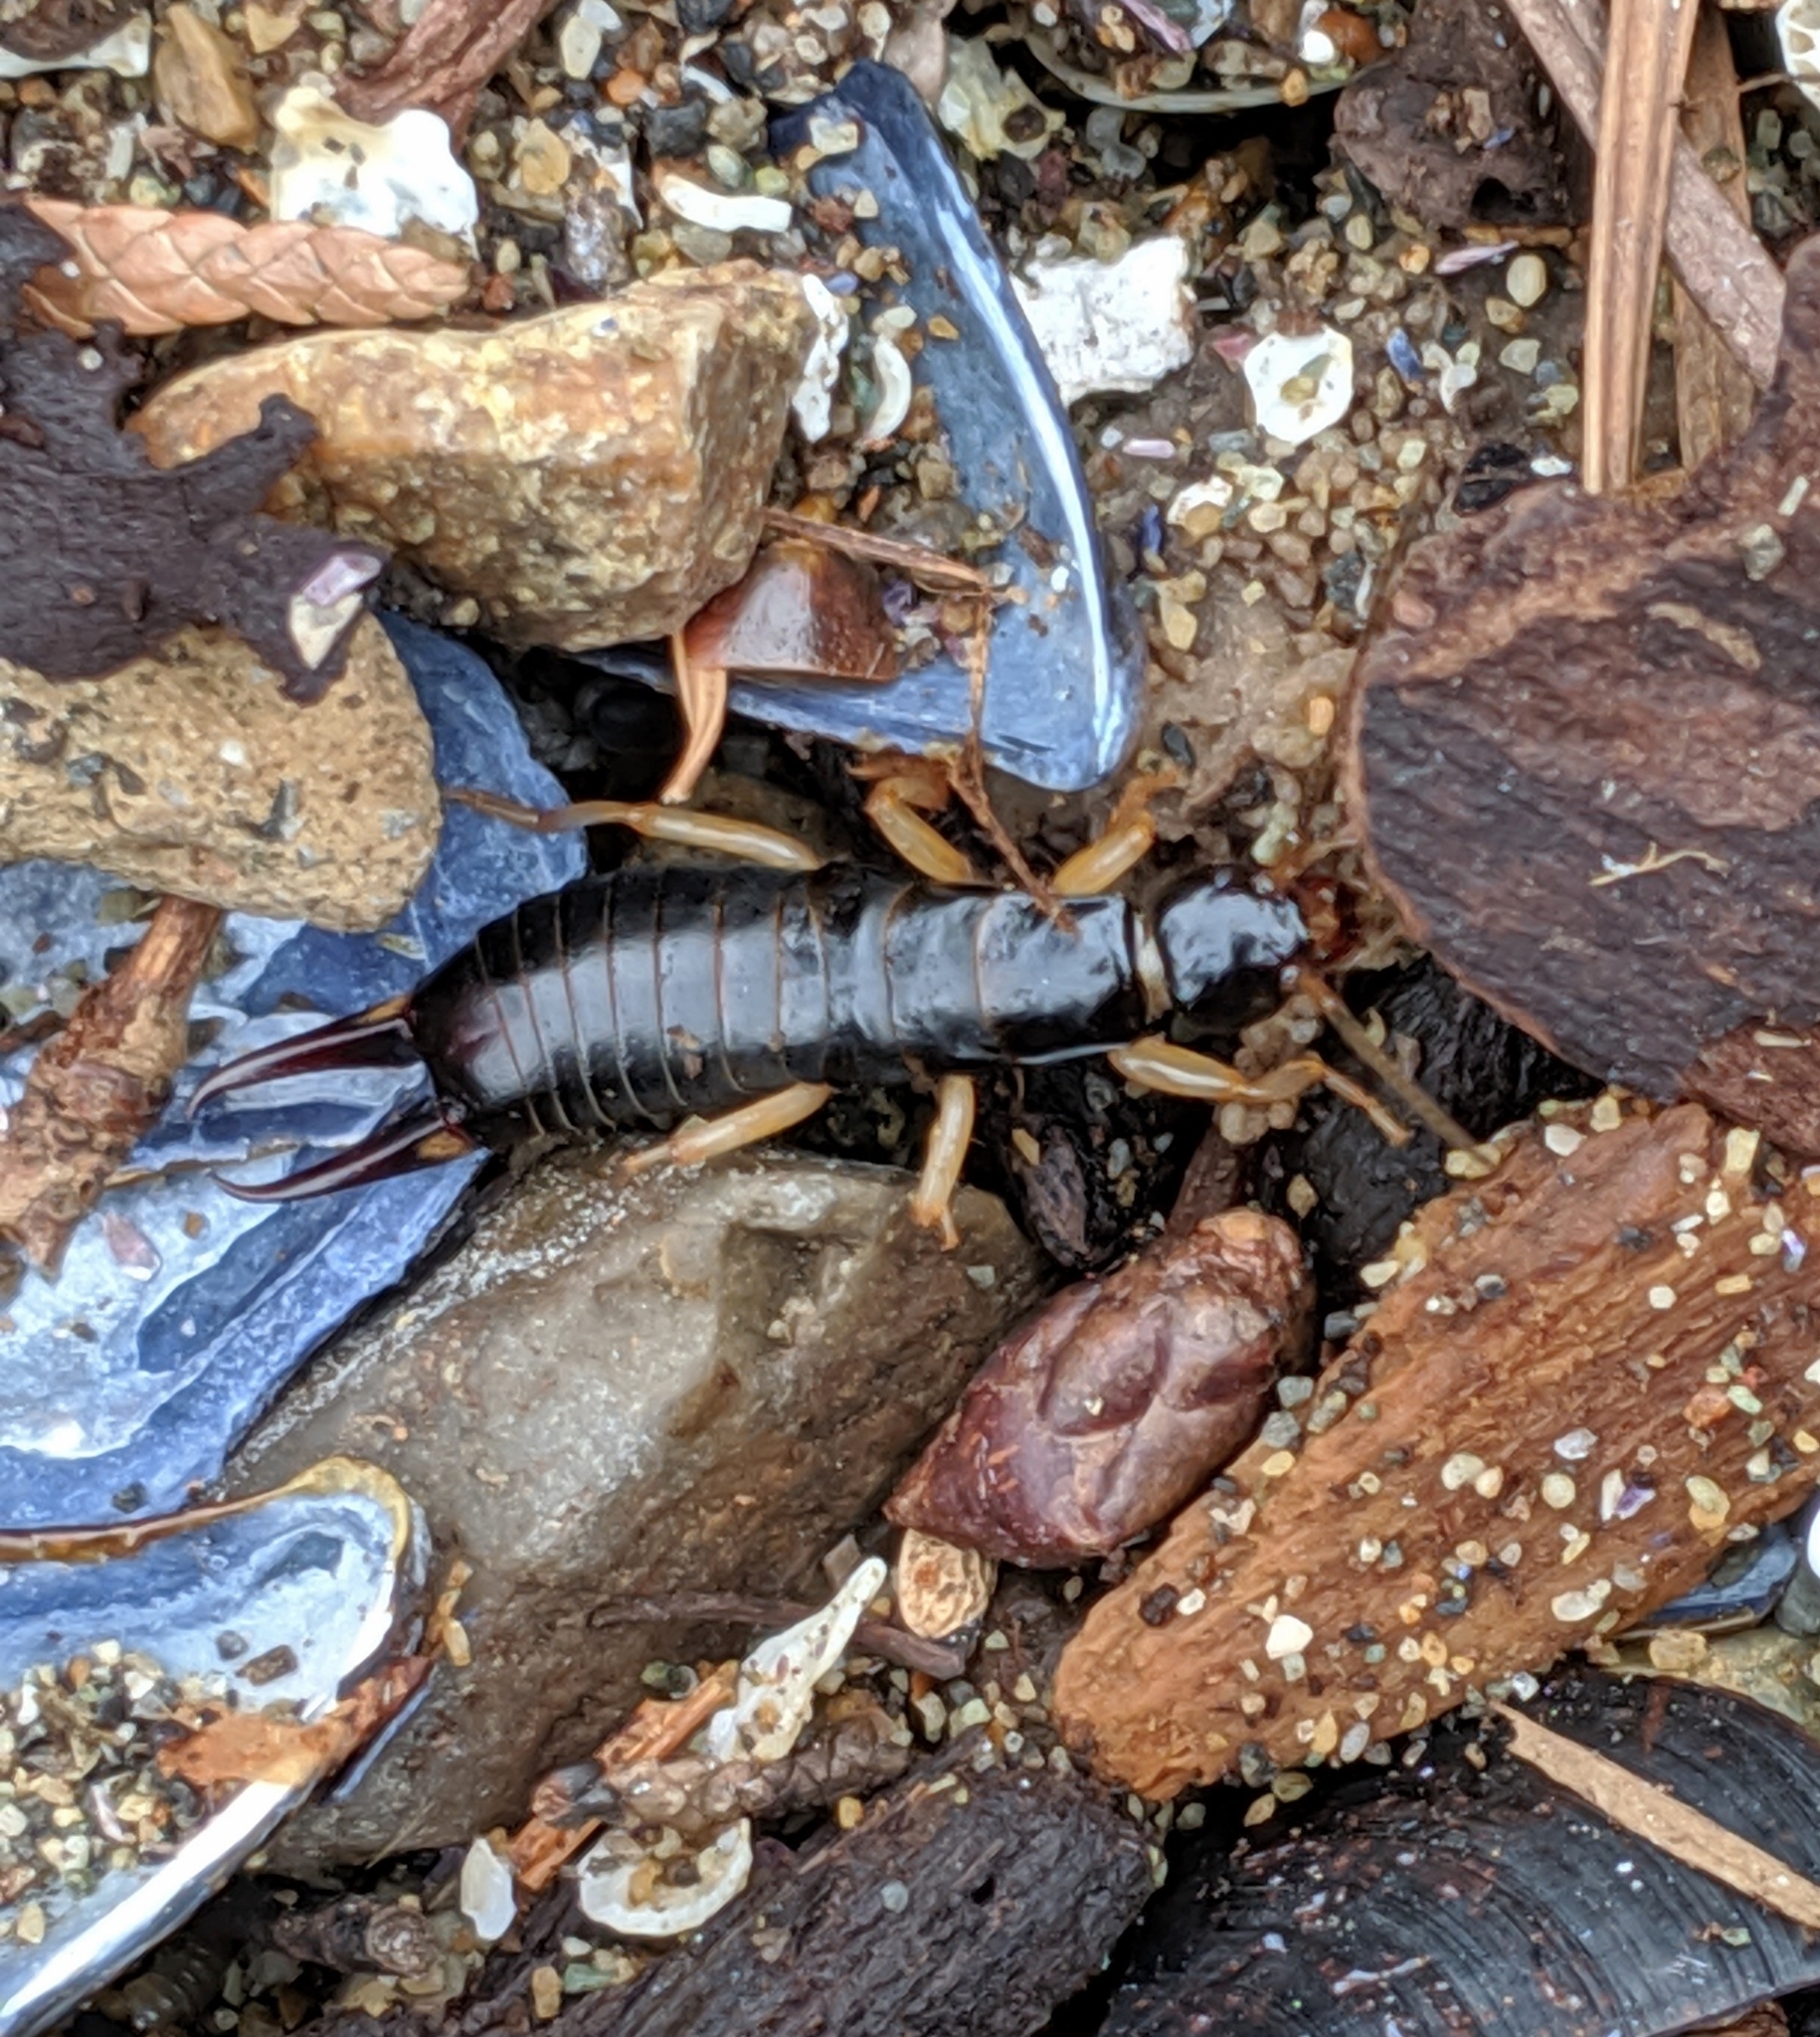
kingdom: Animalia
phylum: Arthropoda
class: Insecta
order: Dermaptera
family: Anisolabididae
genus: Anisolabis
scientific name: Anisolabis maritima
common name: Maritime earwig
